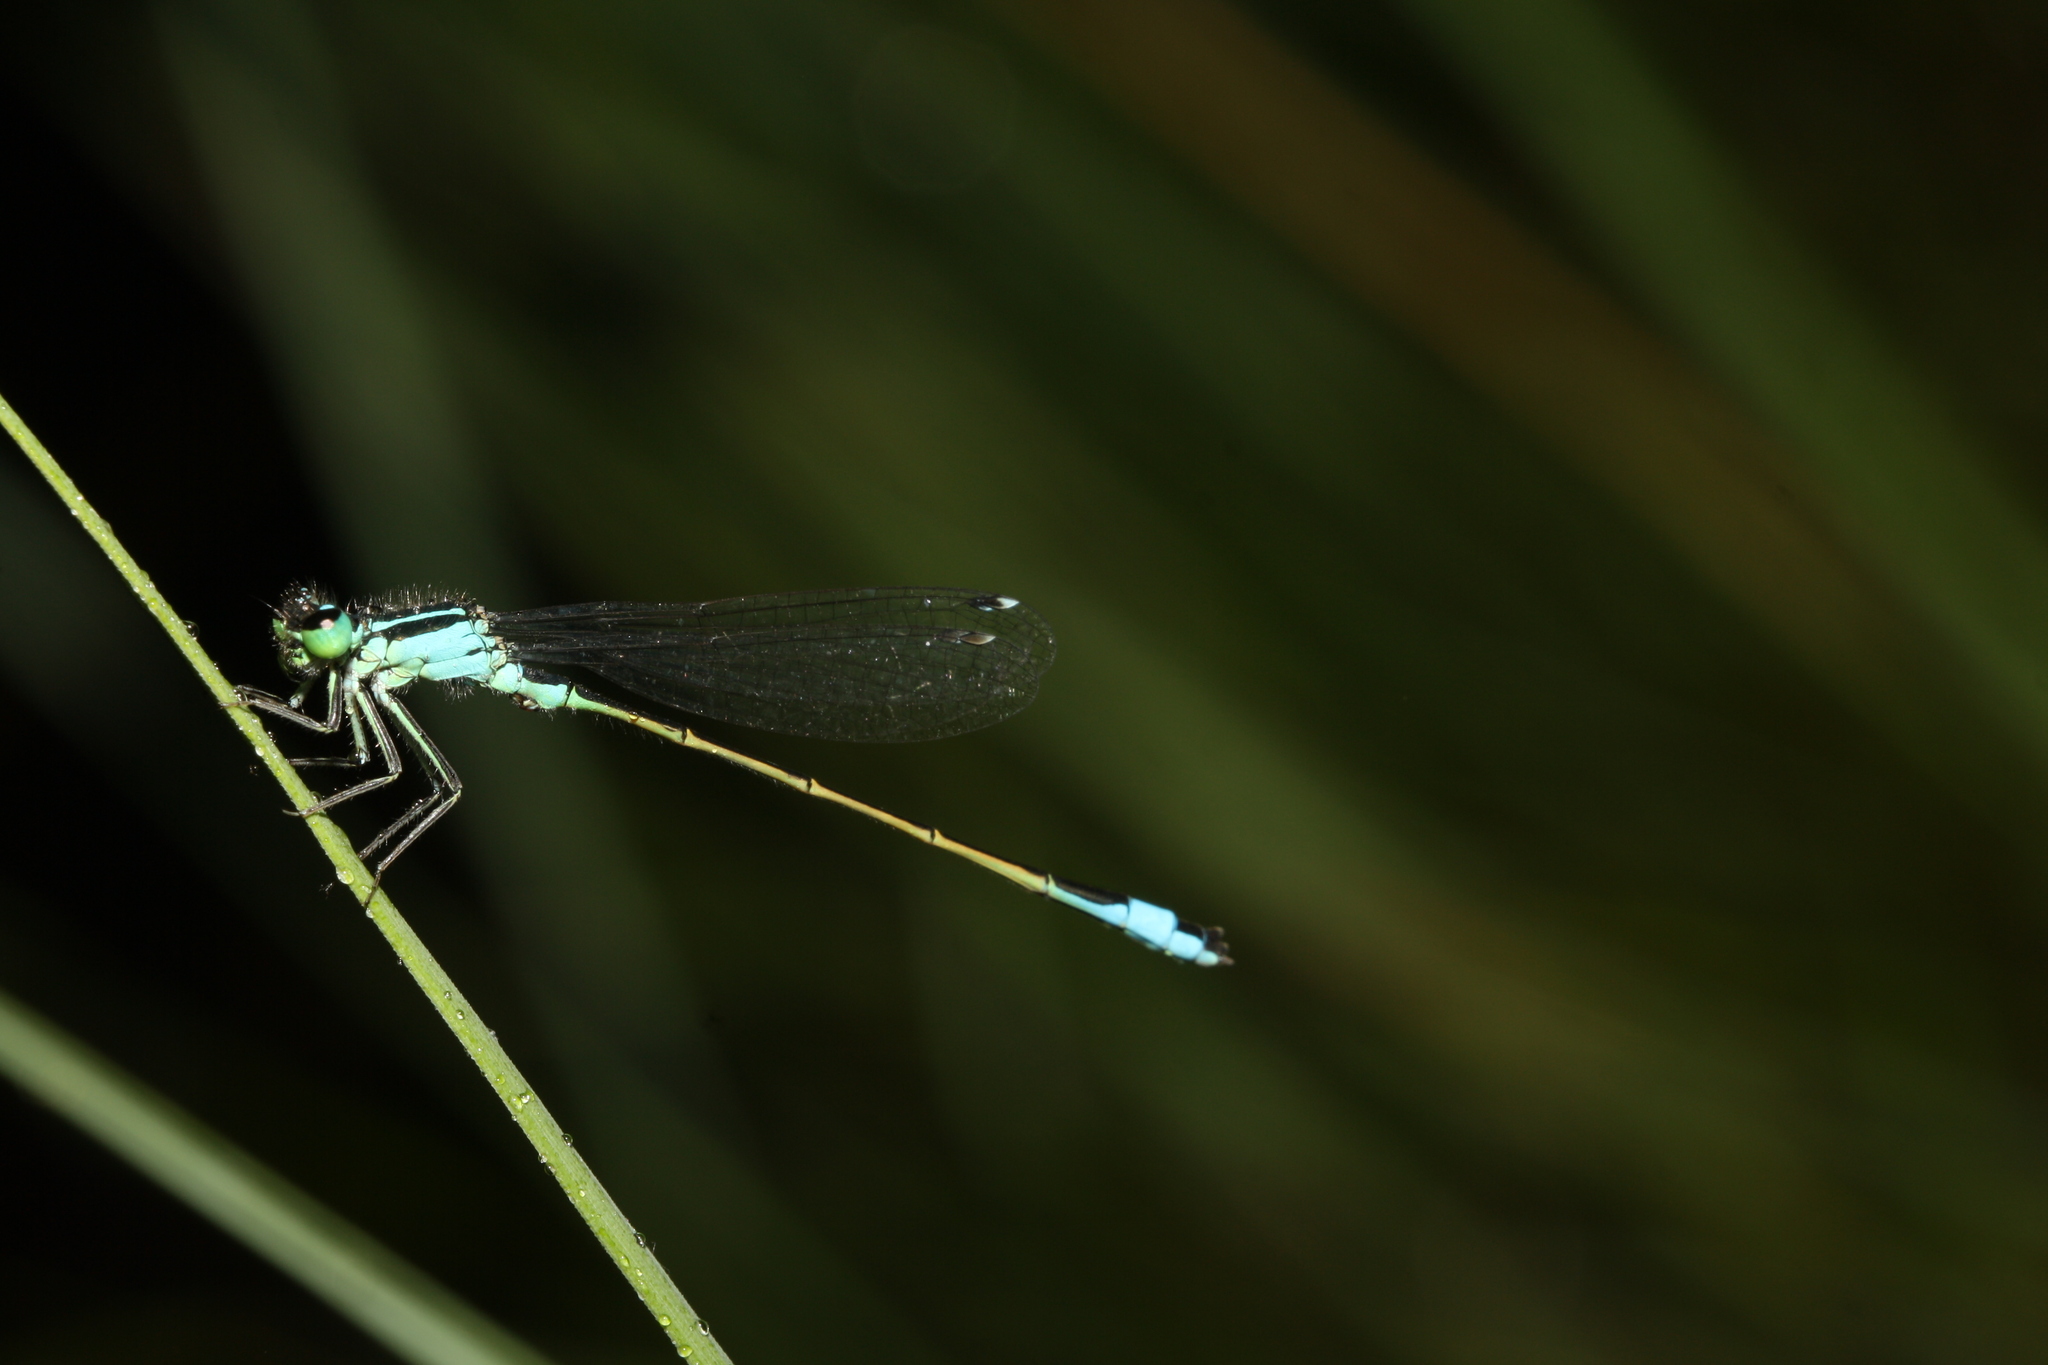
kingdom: Animalia
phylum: Arthropoda
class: Insecta
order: Odonata
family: Coenagrionidae
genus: Ischnura
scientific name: Ischnura elegans
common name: Blue-tailed damselfly
